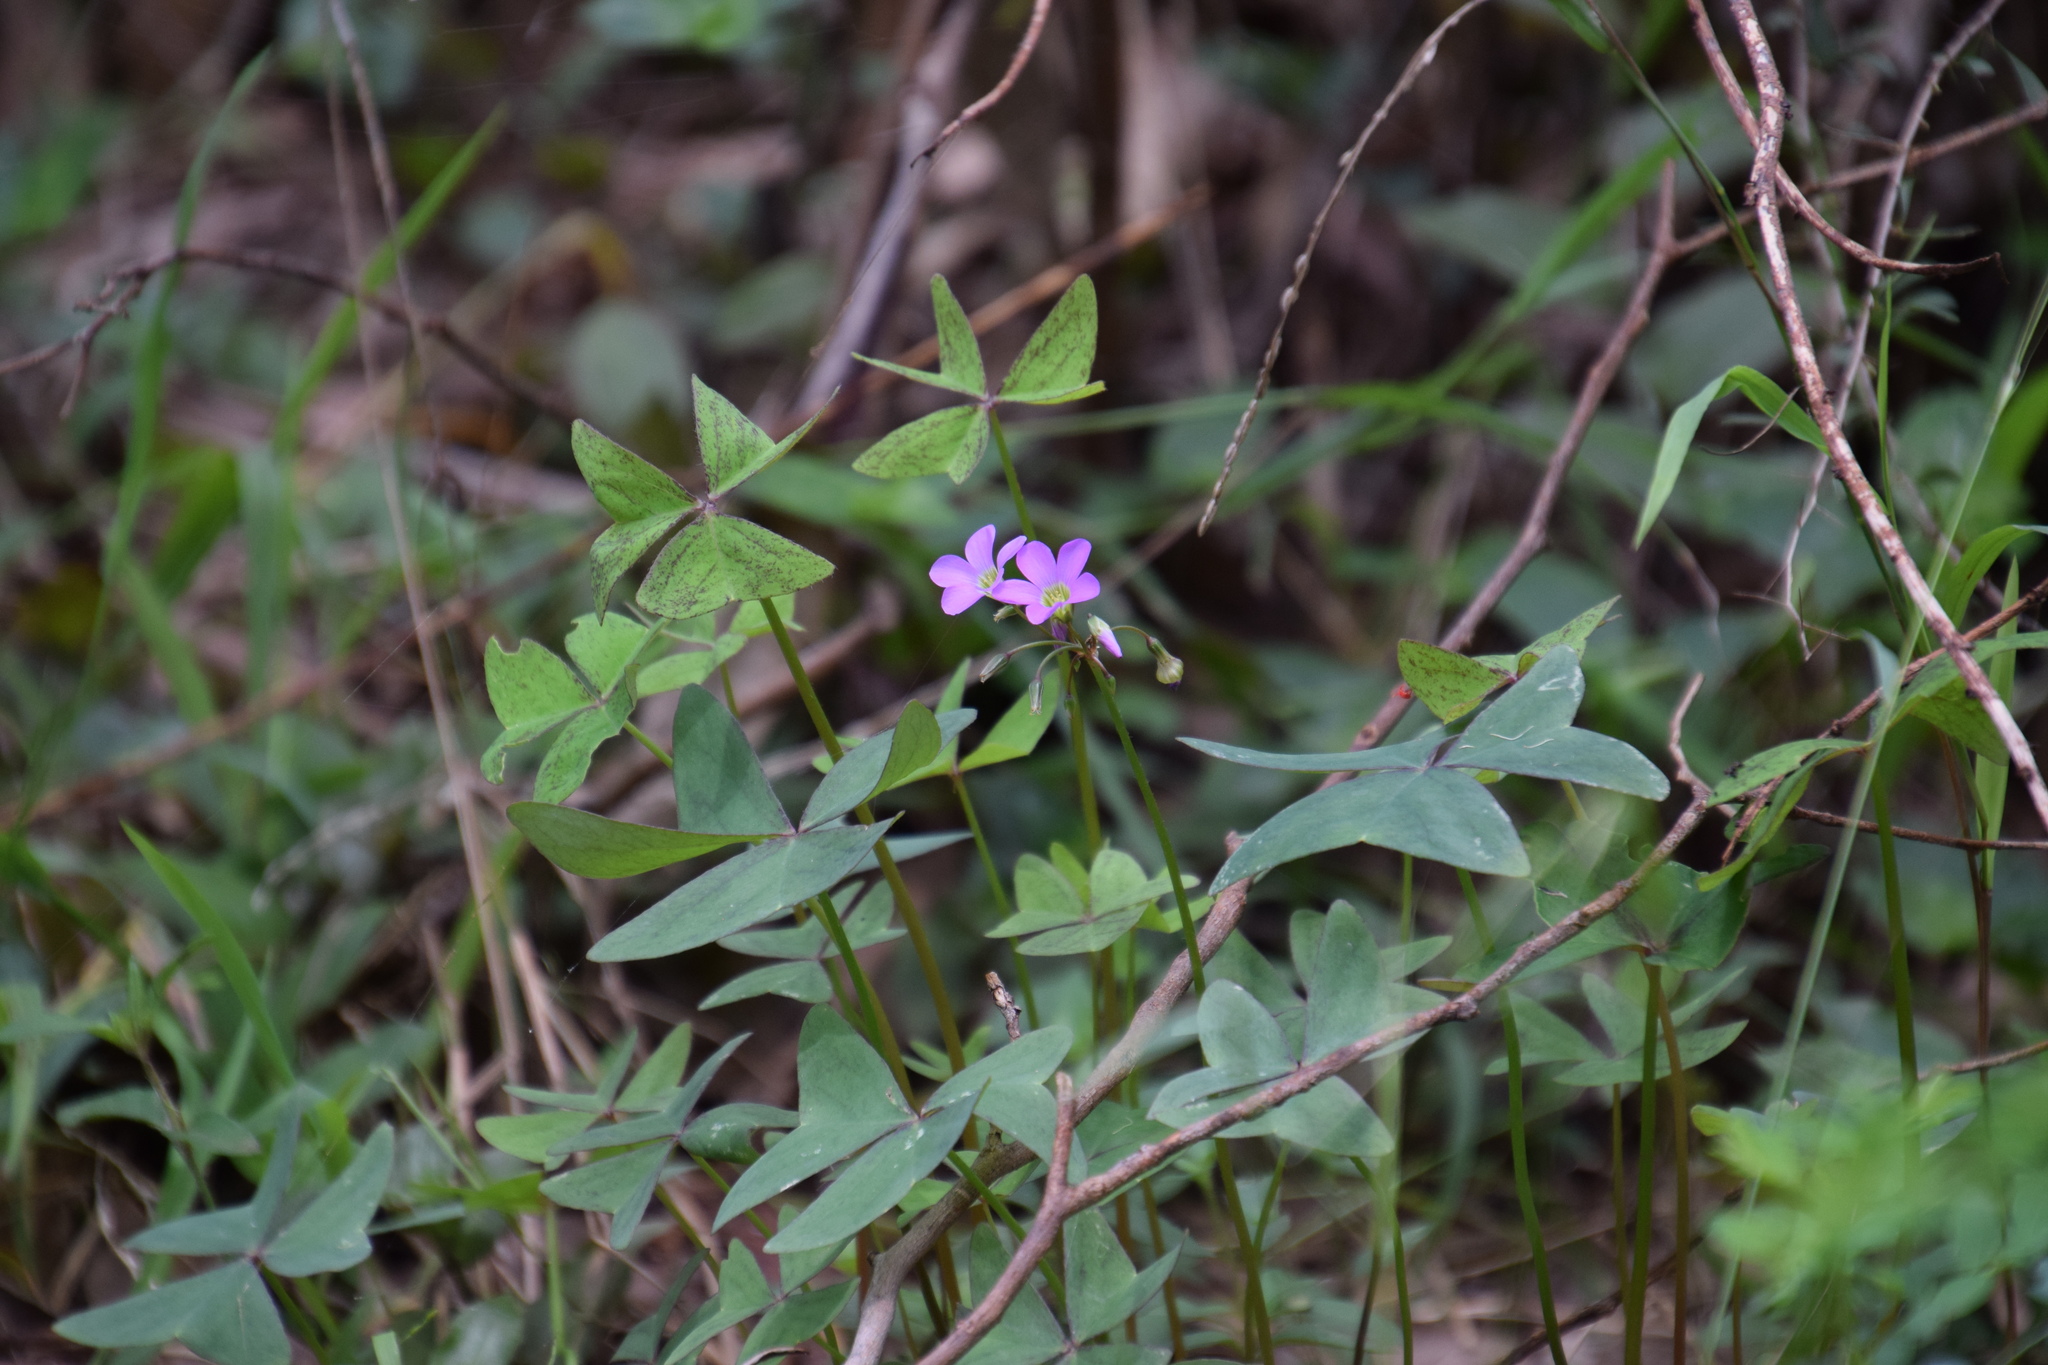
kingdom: Plantae
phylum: Tracheophyta
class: Magnoliopsida
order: Oxalidales
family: Oxalidaceae
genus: Oxalis
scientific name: Oxalis latifolia
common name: Garden pink-sorrel
